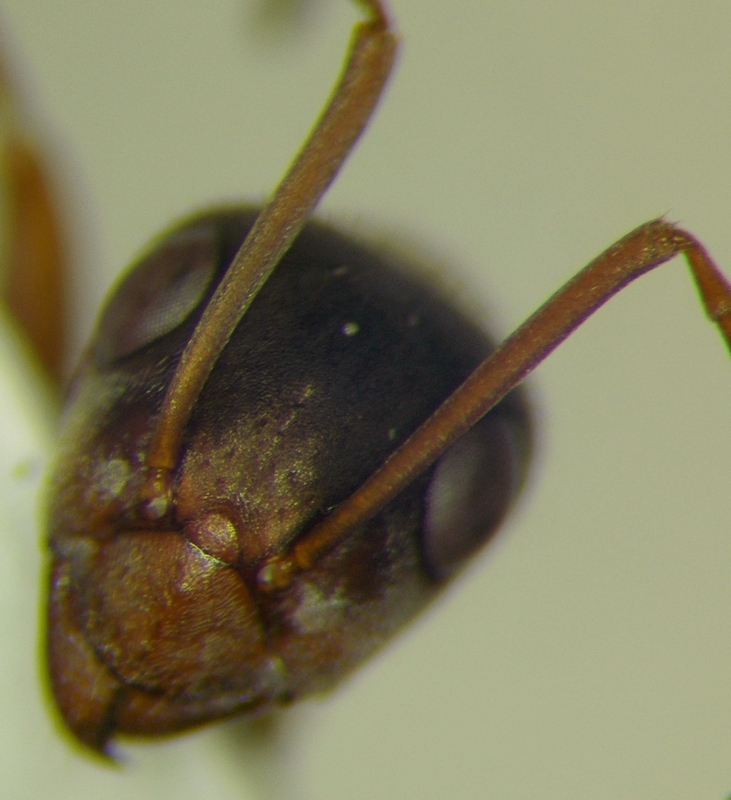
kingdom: Animalia
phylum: Arthropoda
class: Insecta
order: Hymenoptera
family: Formicidae
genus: Formica
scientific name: Formica cinerea
